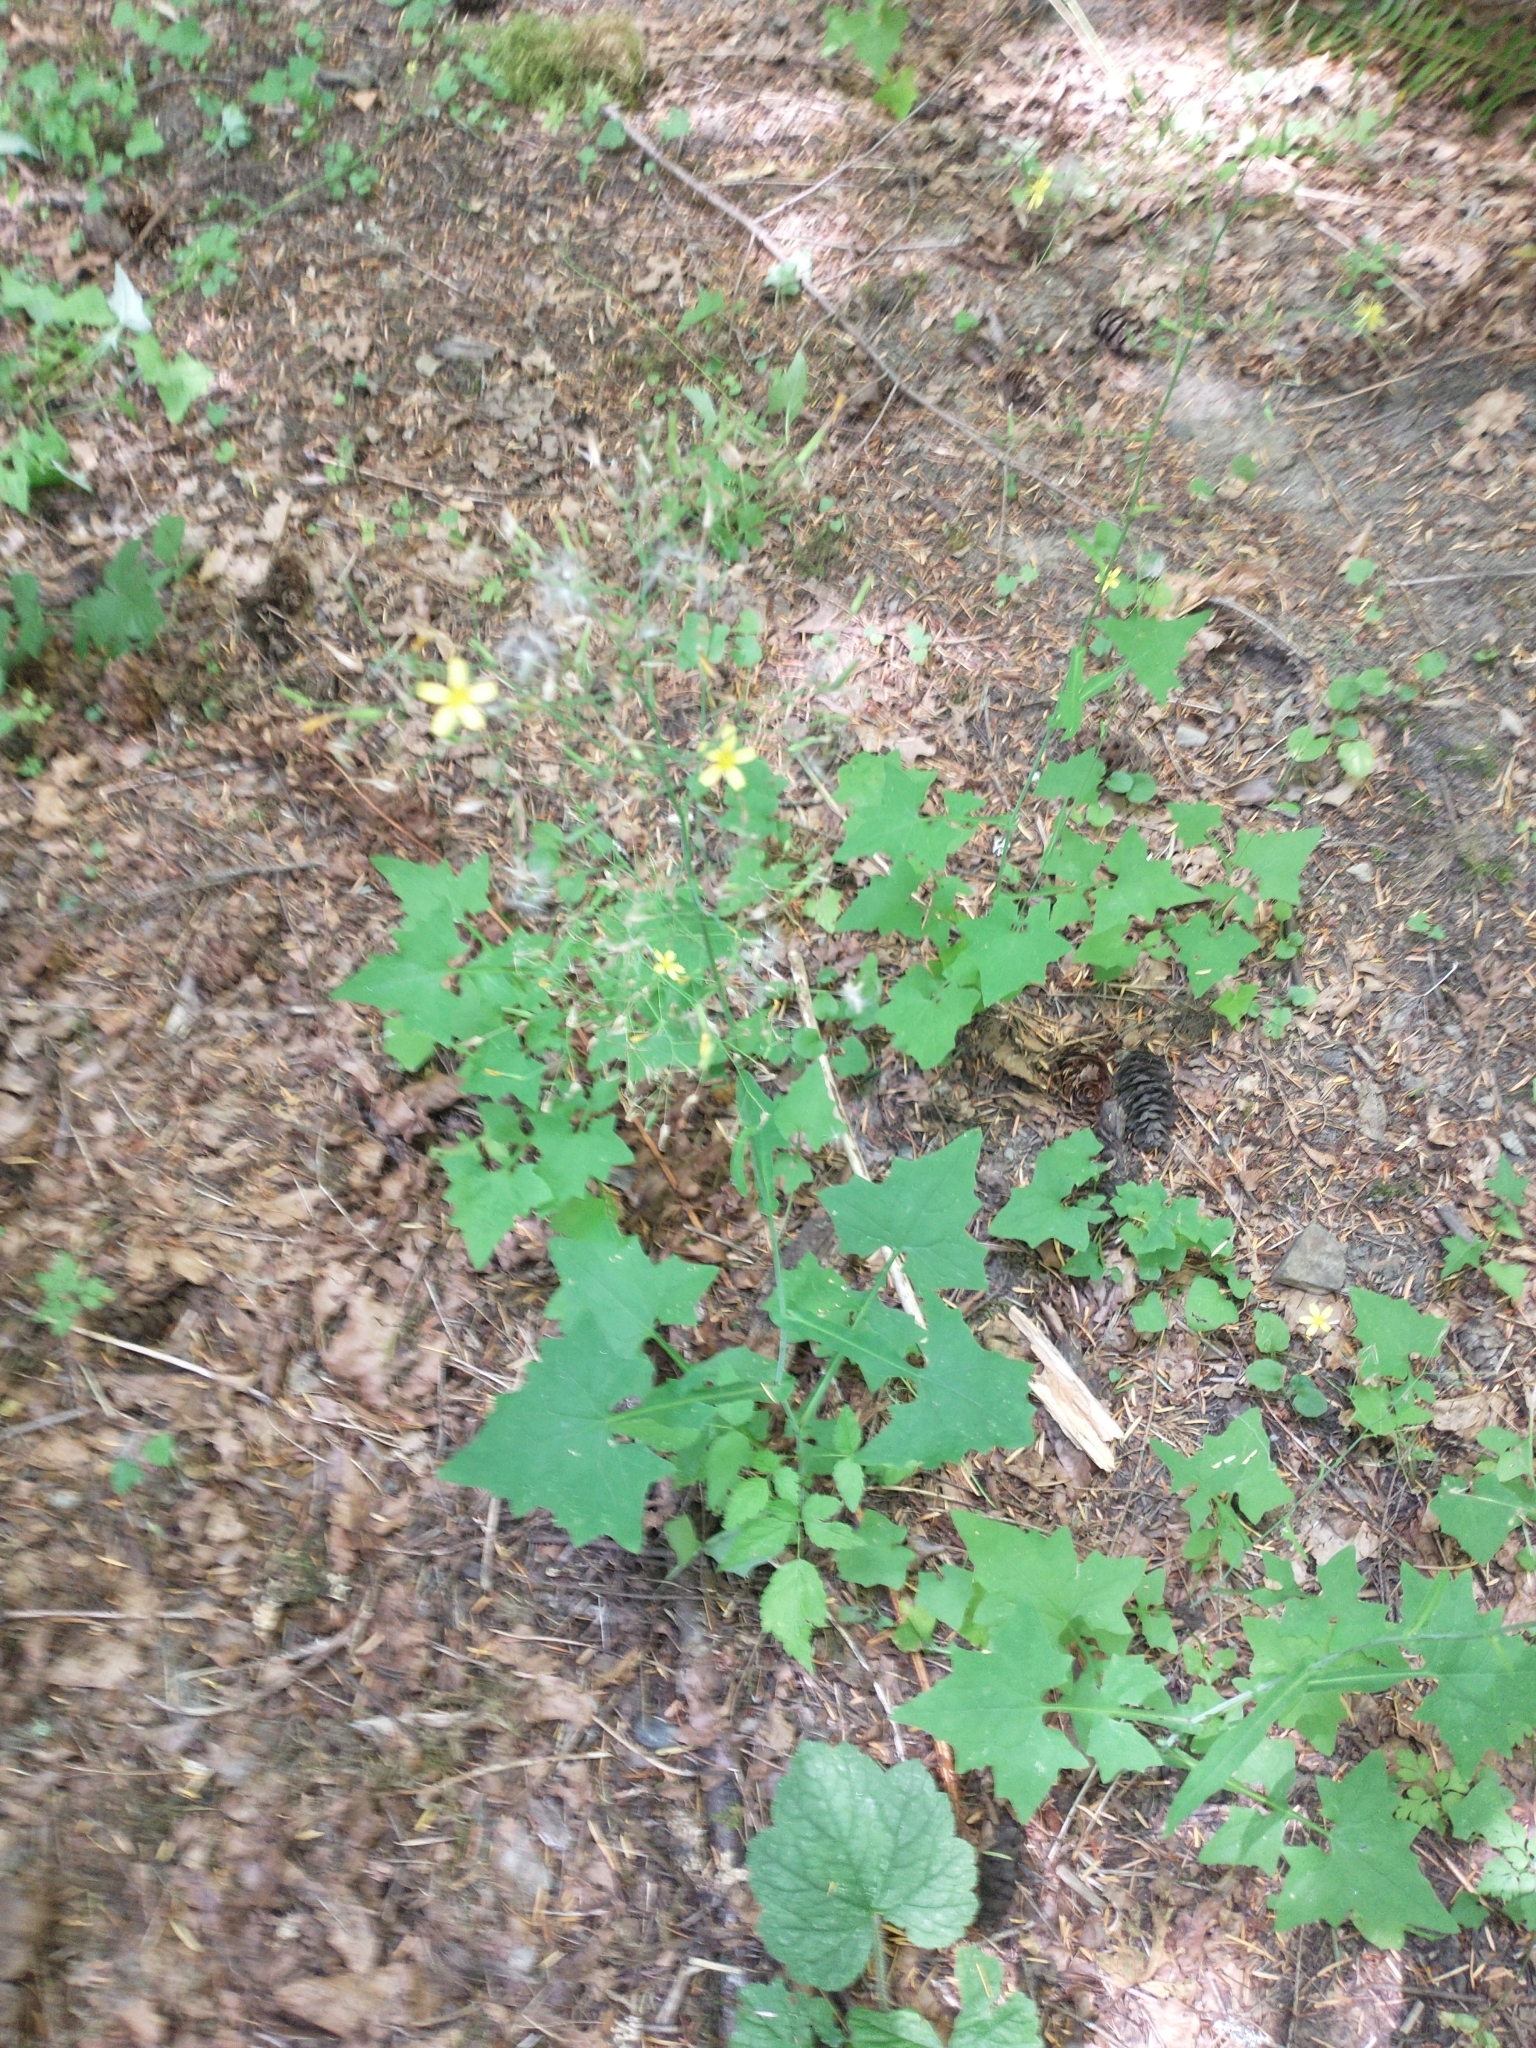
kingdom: Plantae
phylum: Tracheophyta
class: Magnoliopsida
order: Asterales
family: Asteraceae
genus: Mycelis
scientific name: Mycelis muralis
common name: Wall lettuce
